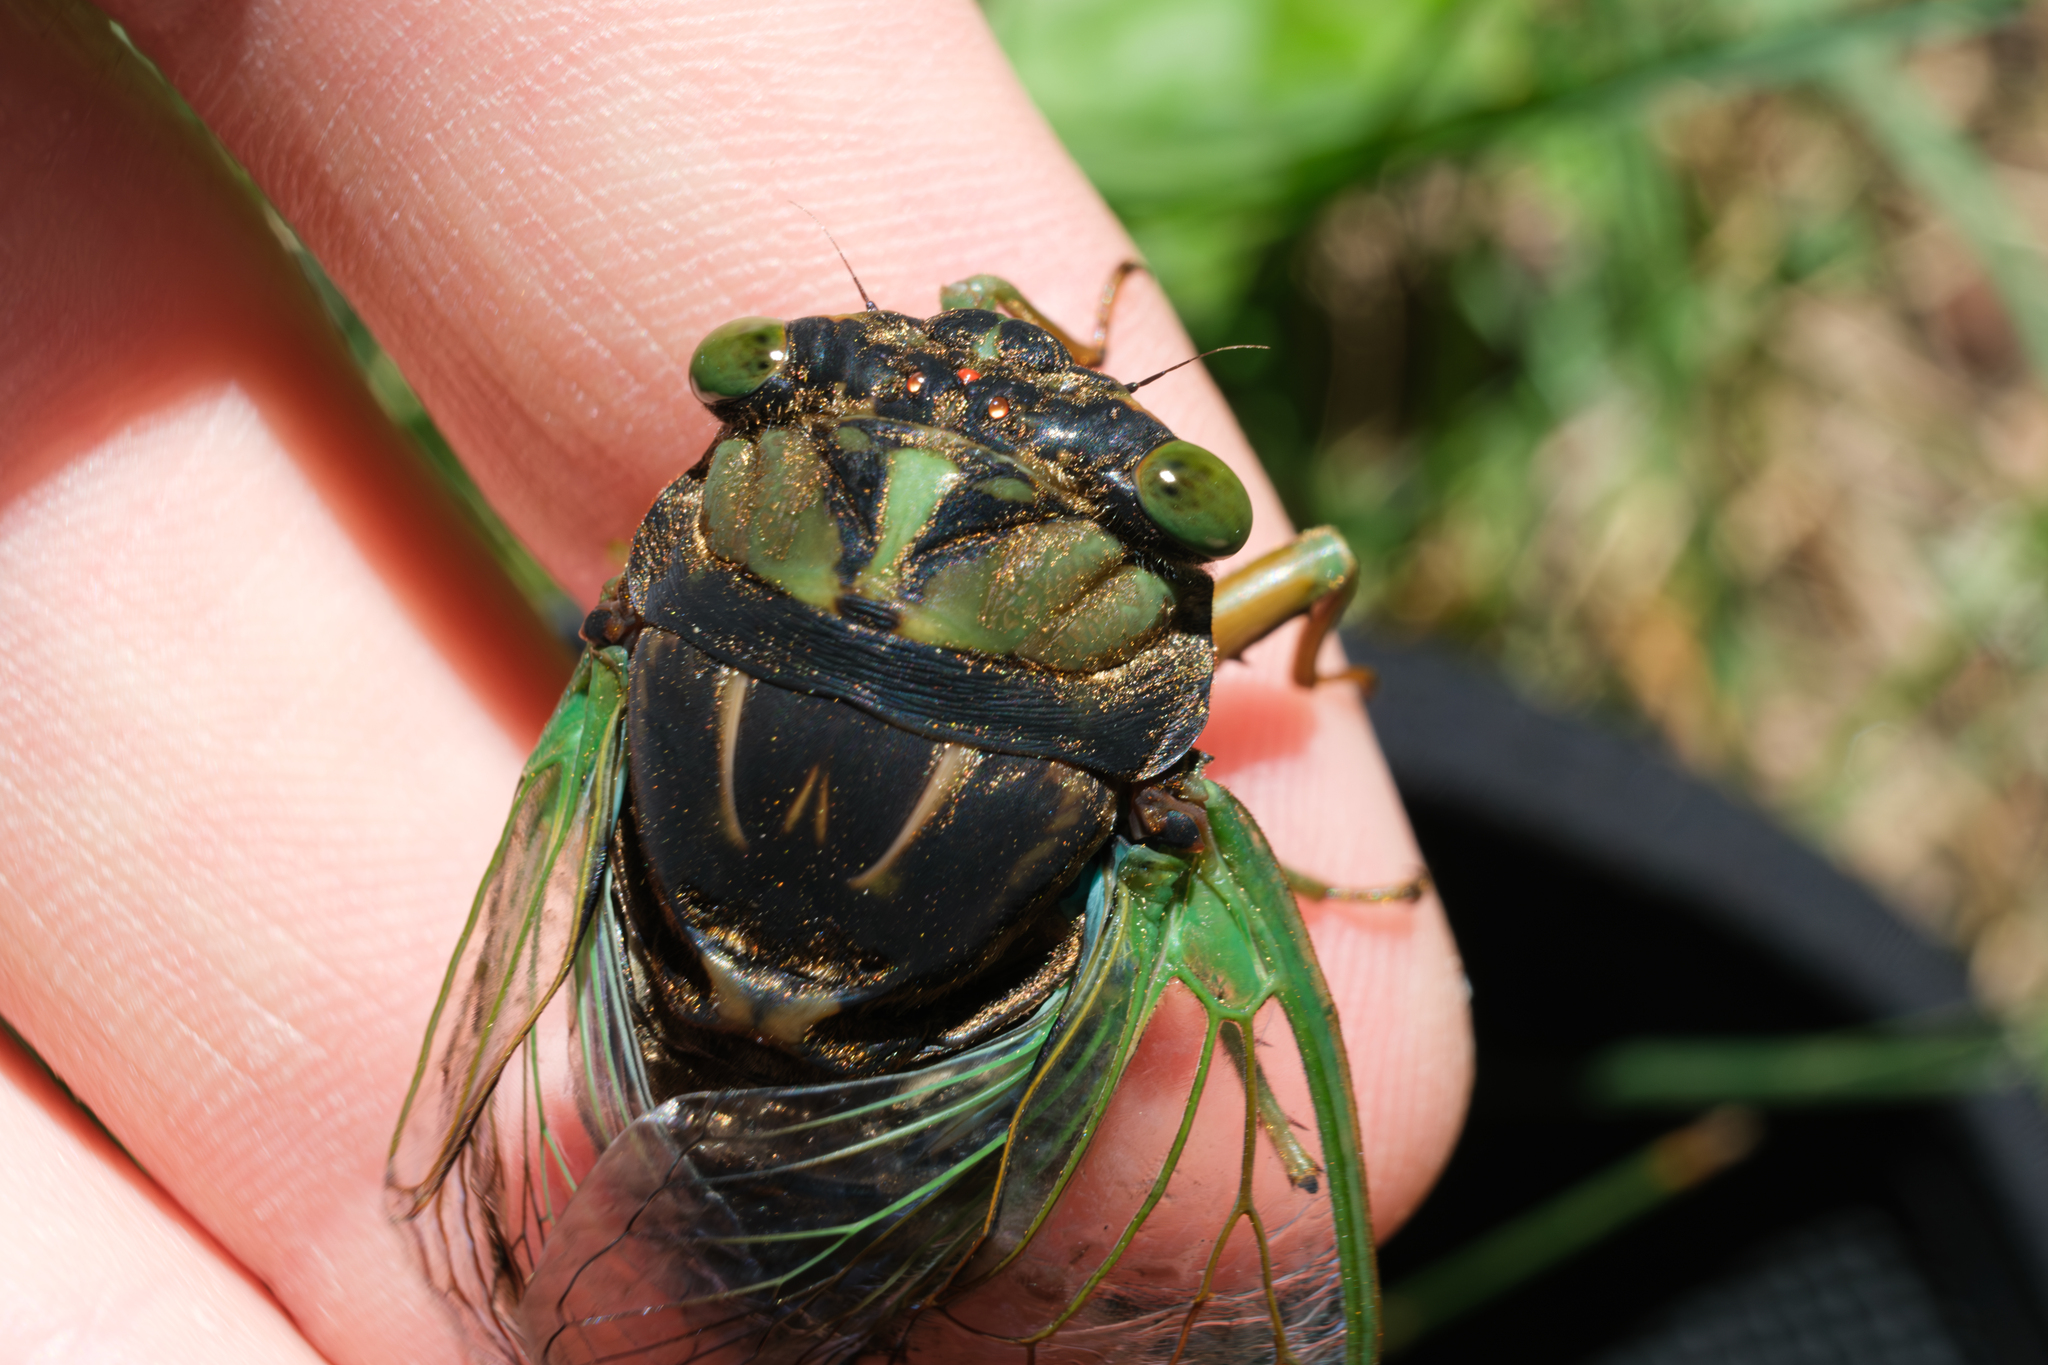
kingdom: Animalia
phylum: Arthropoda
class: Insecta
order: Hemiptera
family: Cicadidae
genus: Neotibicen
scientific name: Neotibicen tibicen
